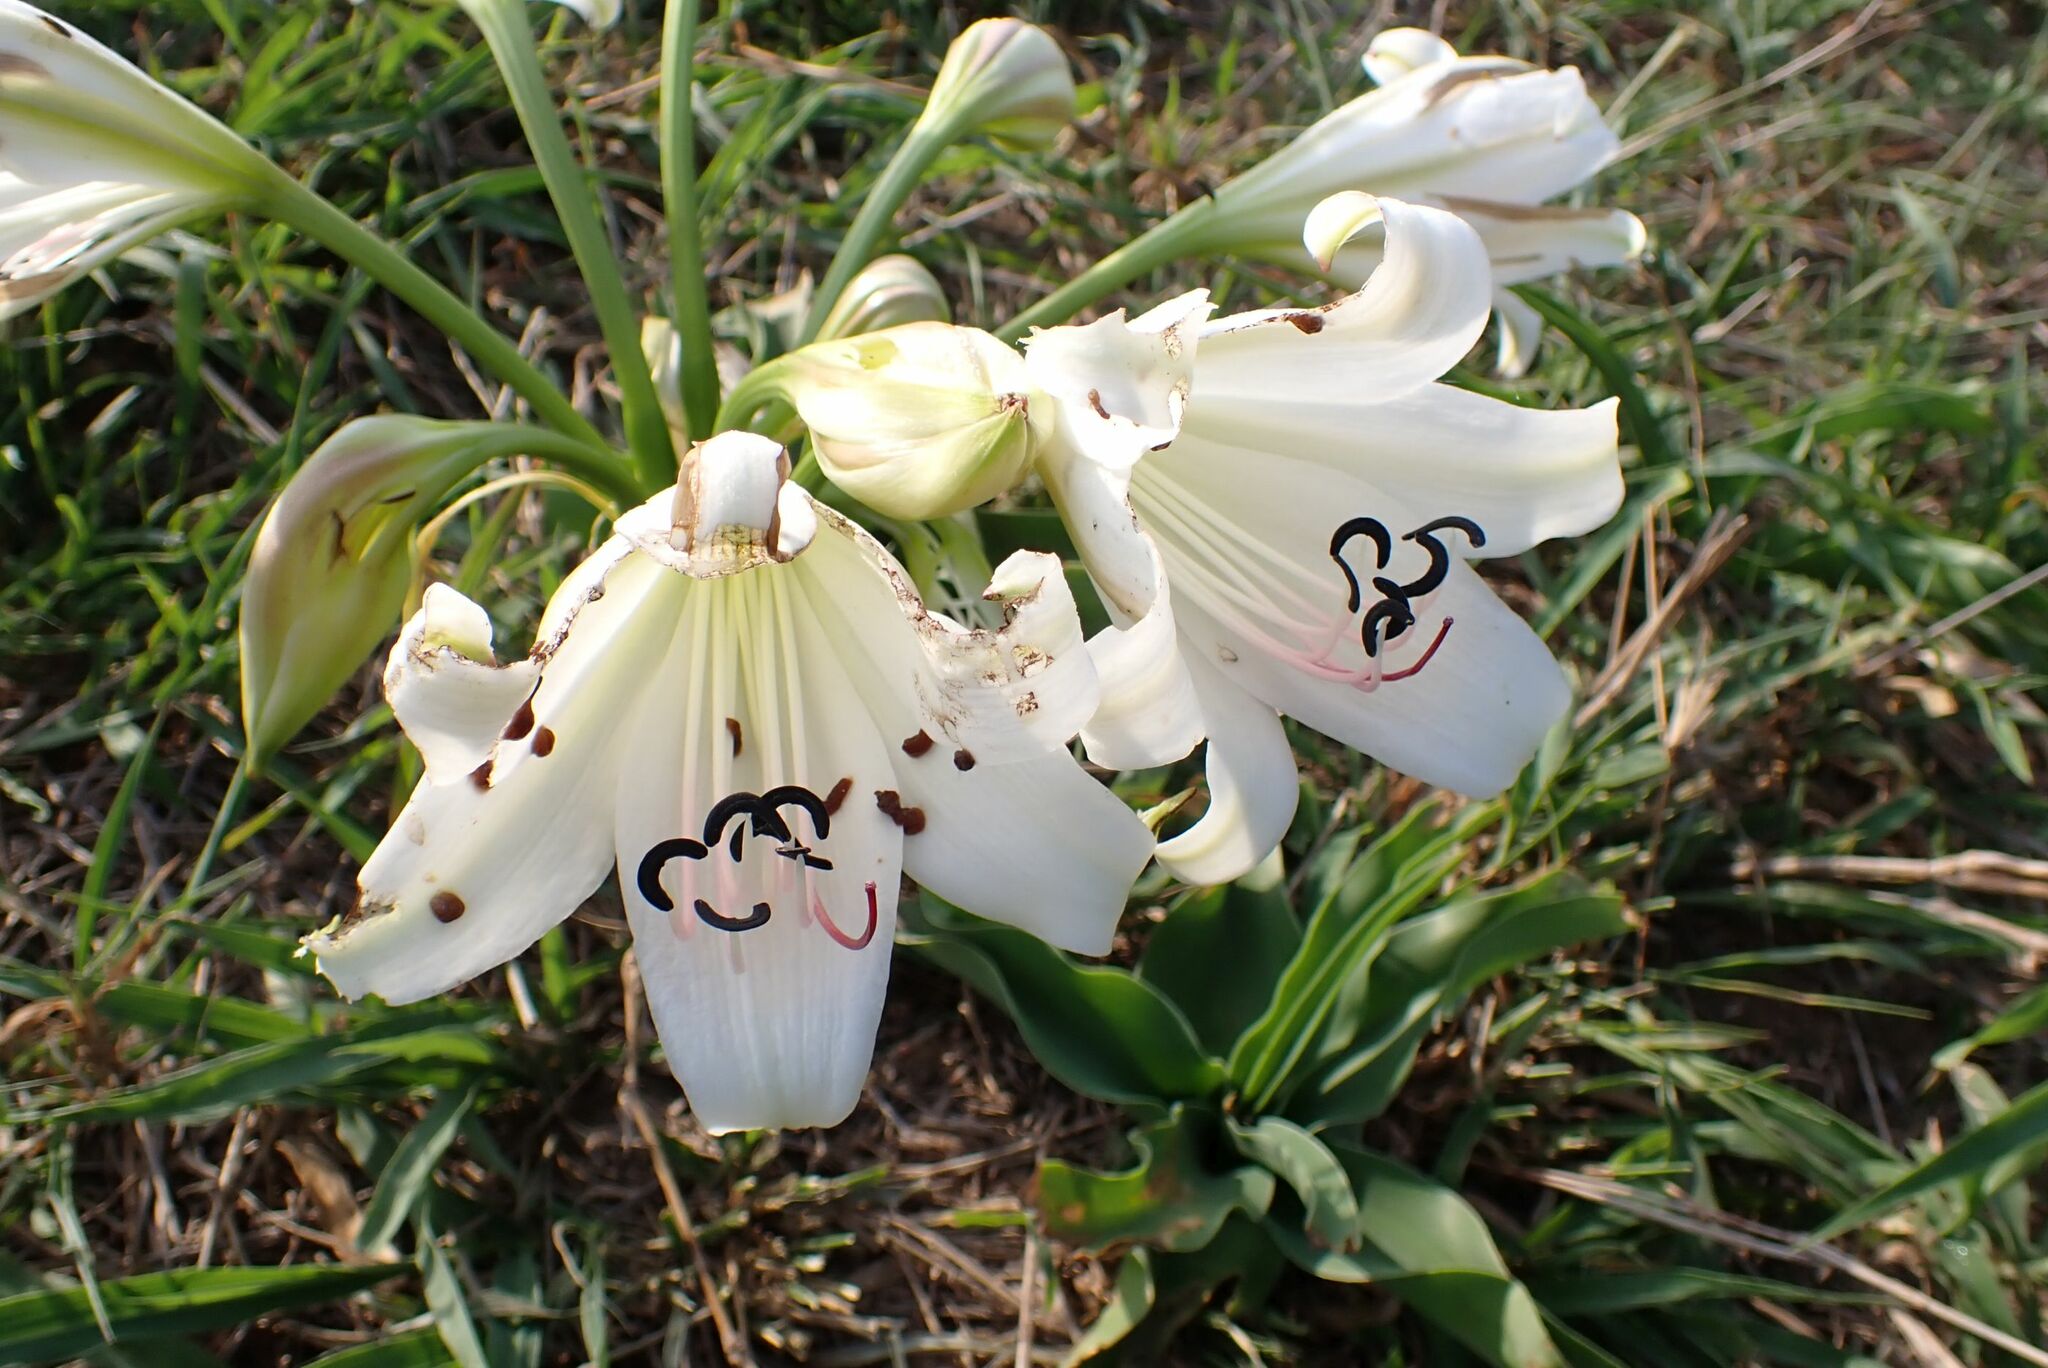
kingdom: Plantae
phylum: Tracheophyta
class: Liliopsida
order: Asparagales
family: Amaryllidaceae
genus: Crinum
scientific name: Crinum macowanii
